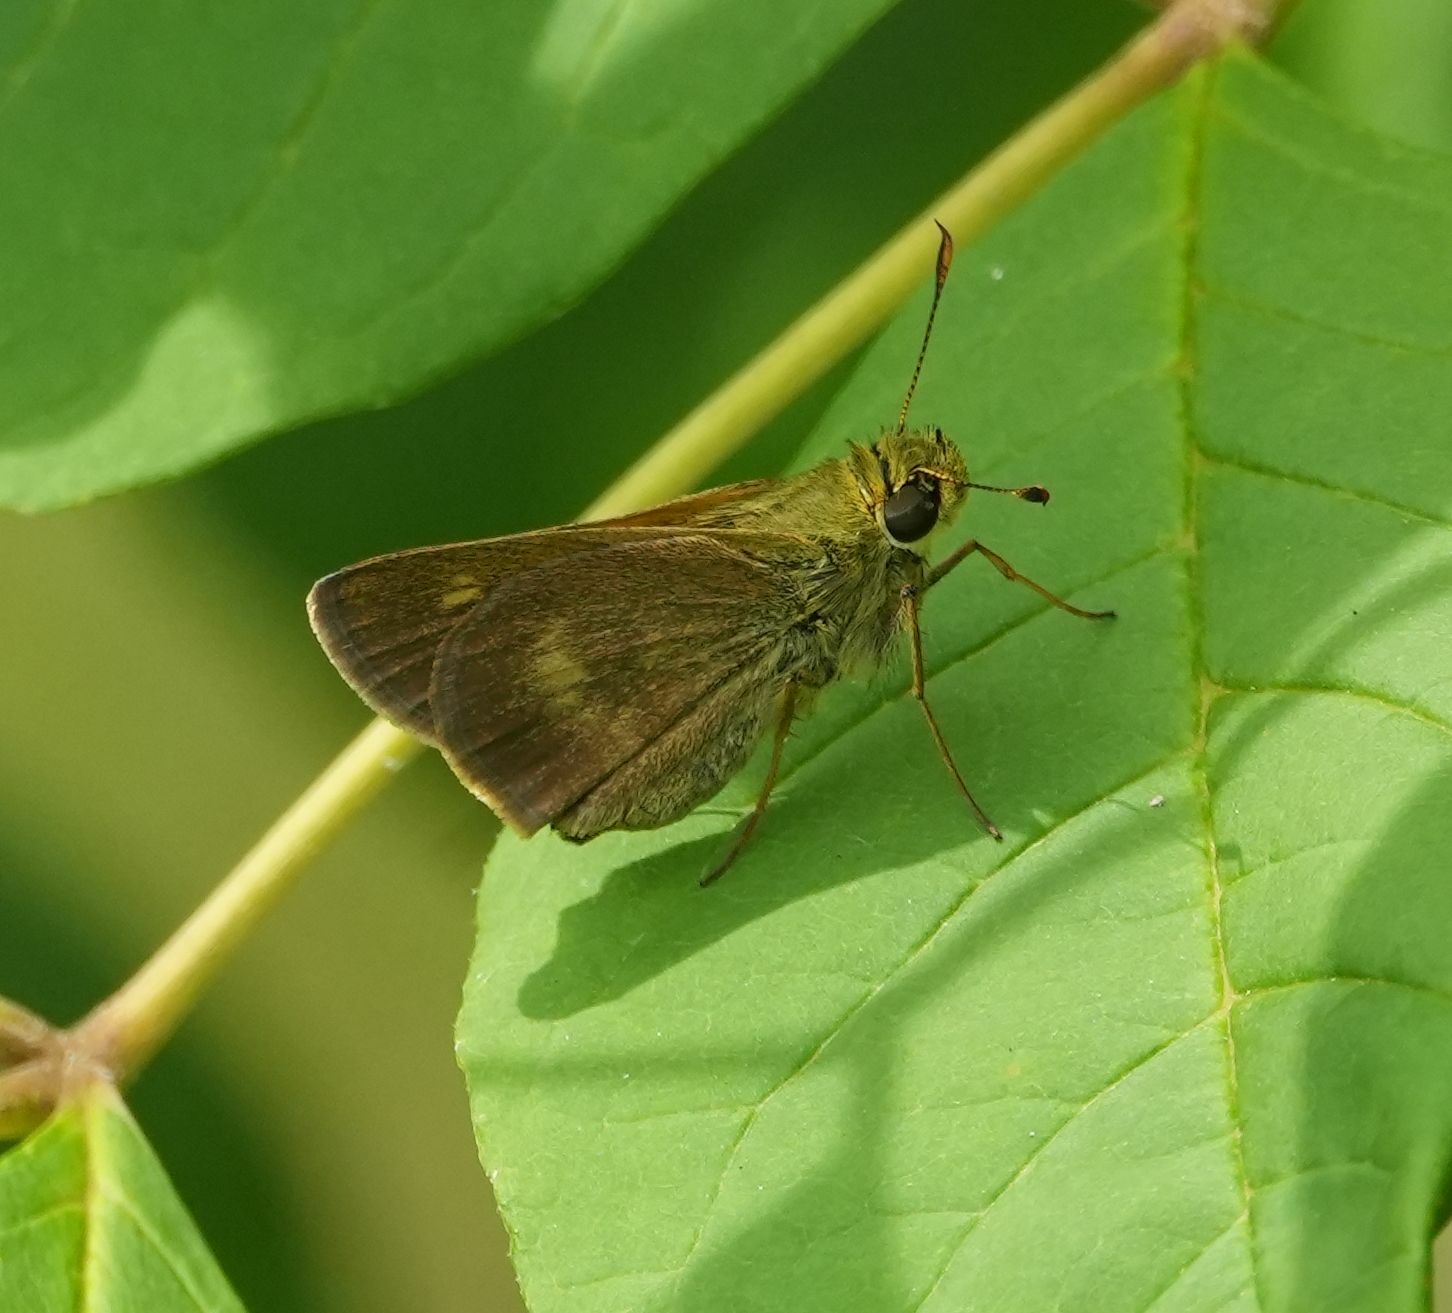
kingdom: Animalia
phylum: Arthropoda
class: Insecta
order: Lepidoptera
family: Hesperiidae
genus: Polites
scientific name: Polites egeremet
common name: Northern broken-dash
